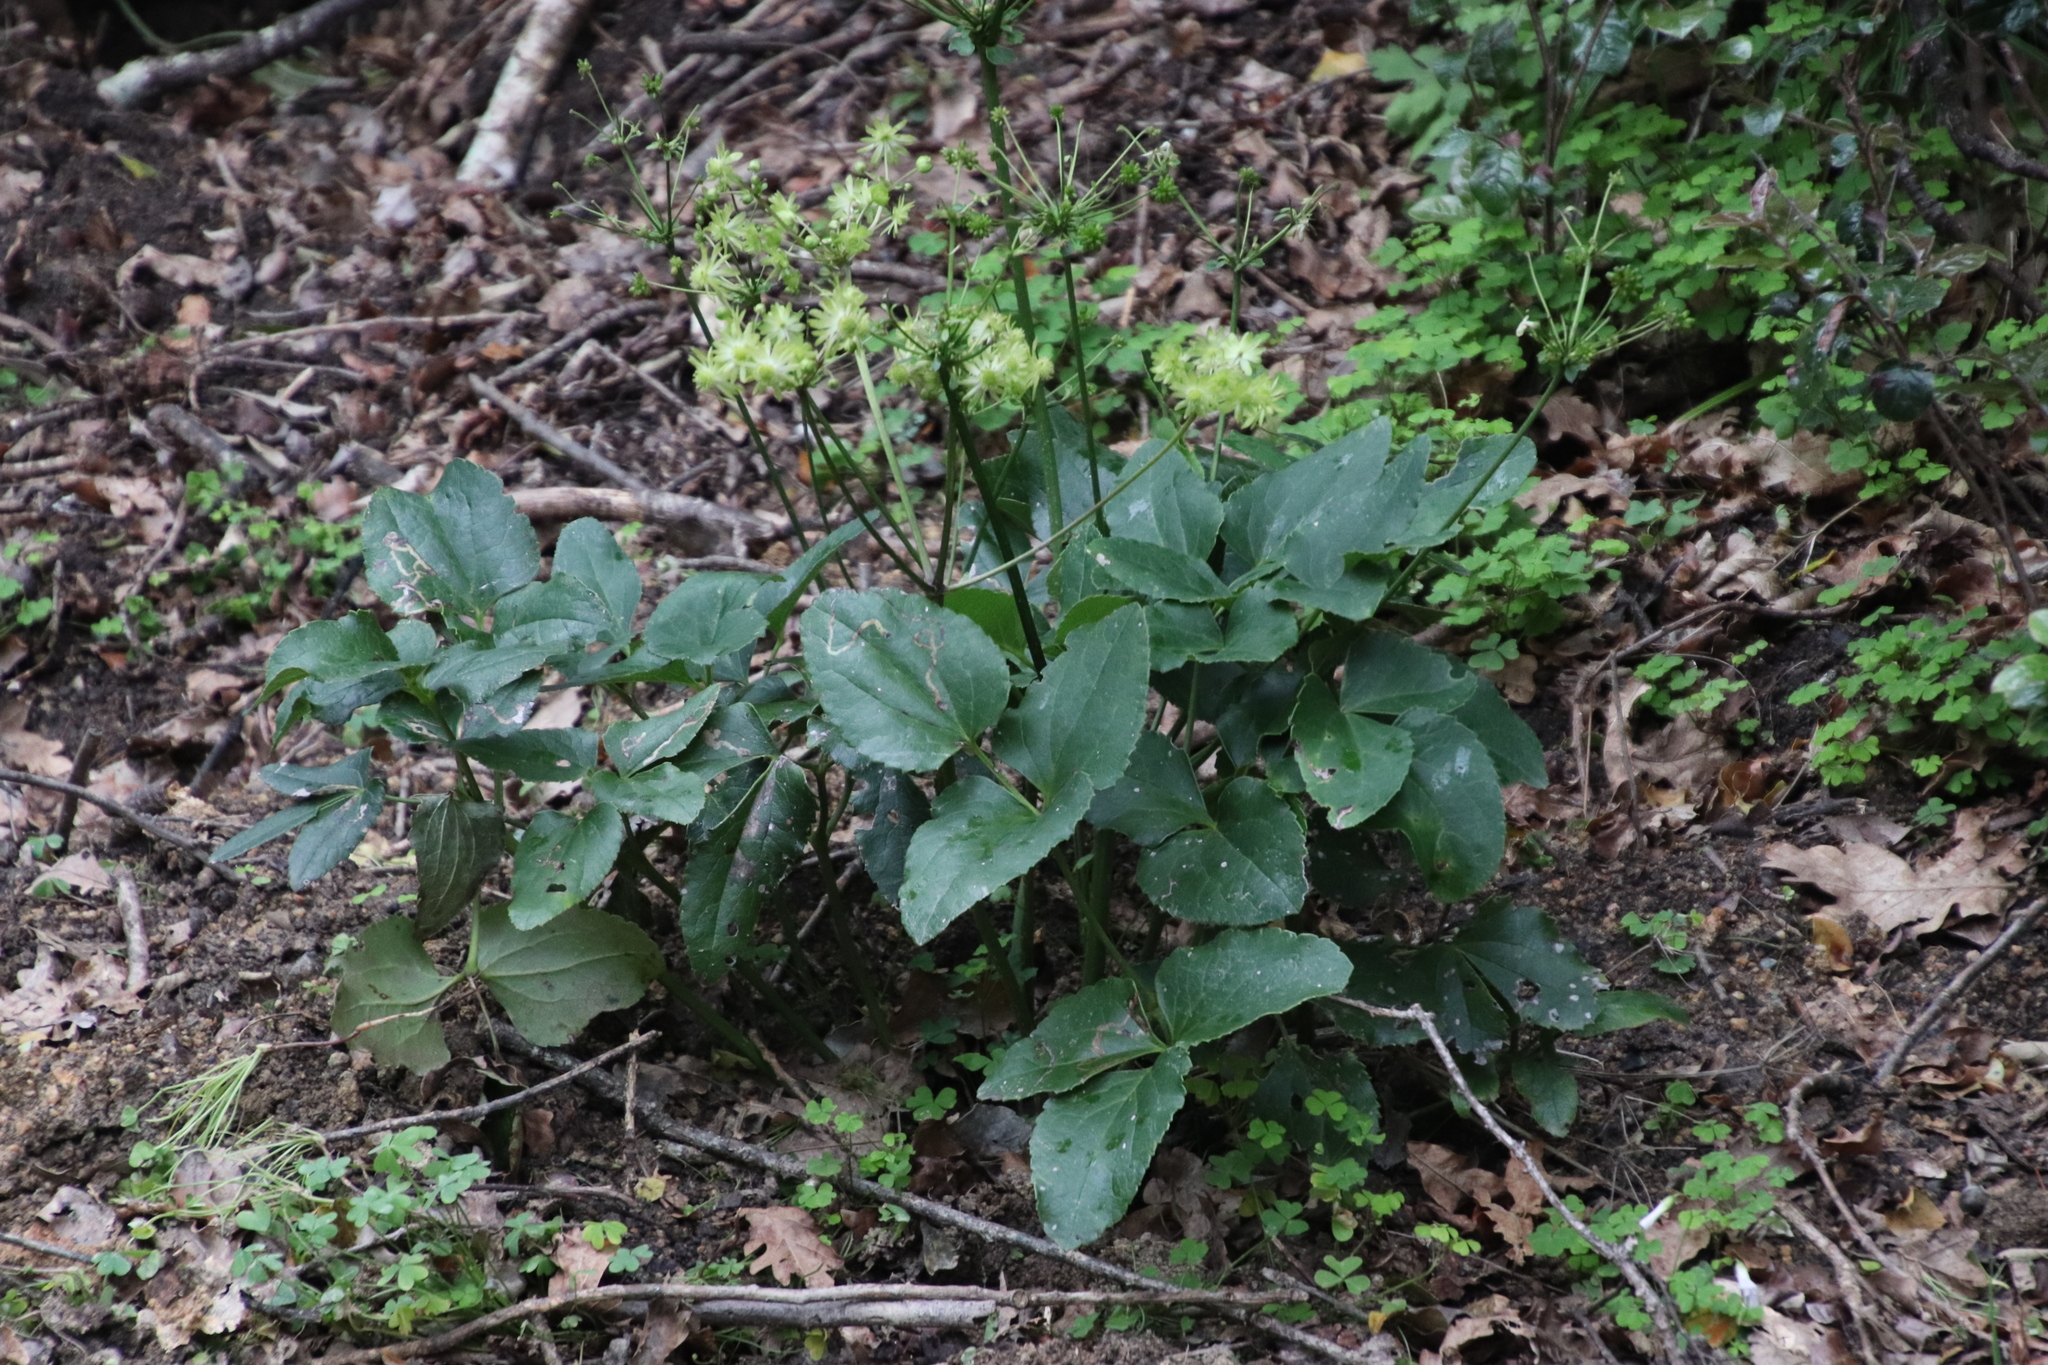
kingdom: Plantae
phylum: Tracheophyta
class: Magnoliopsida
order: Ranunculales
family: Ranunculaceae
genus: Knowltonia
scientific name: Knowltonia vesicatoria
